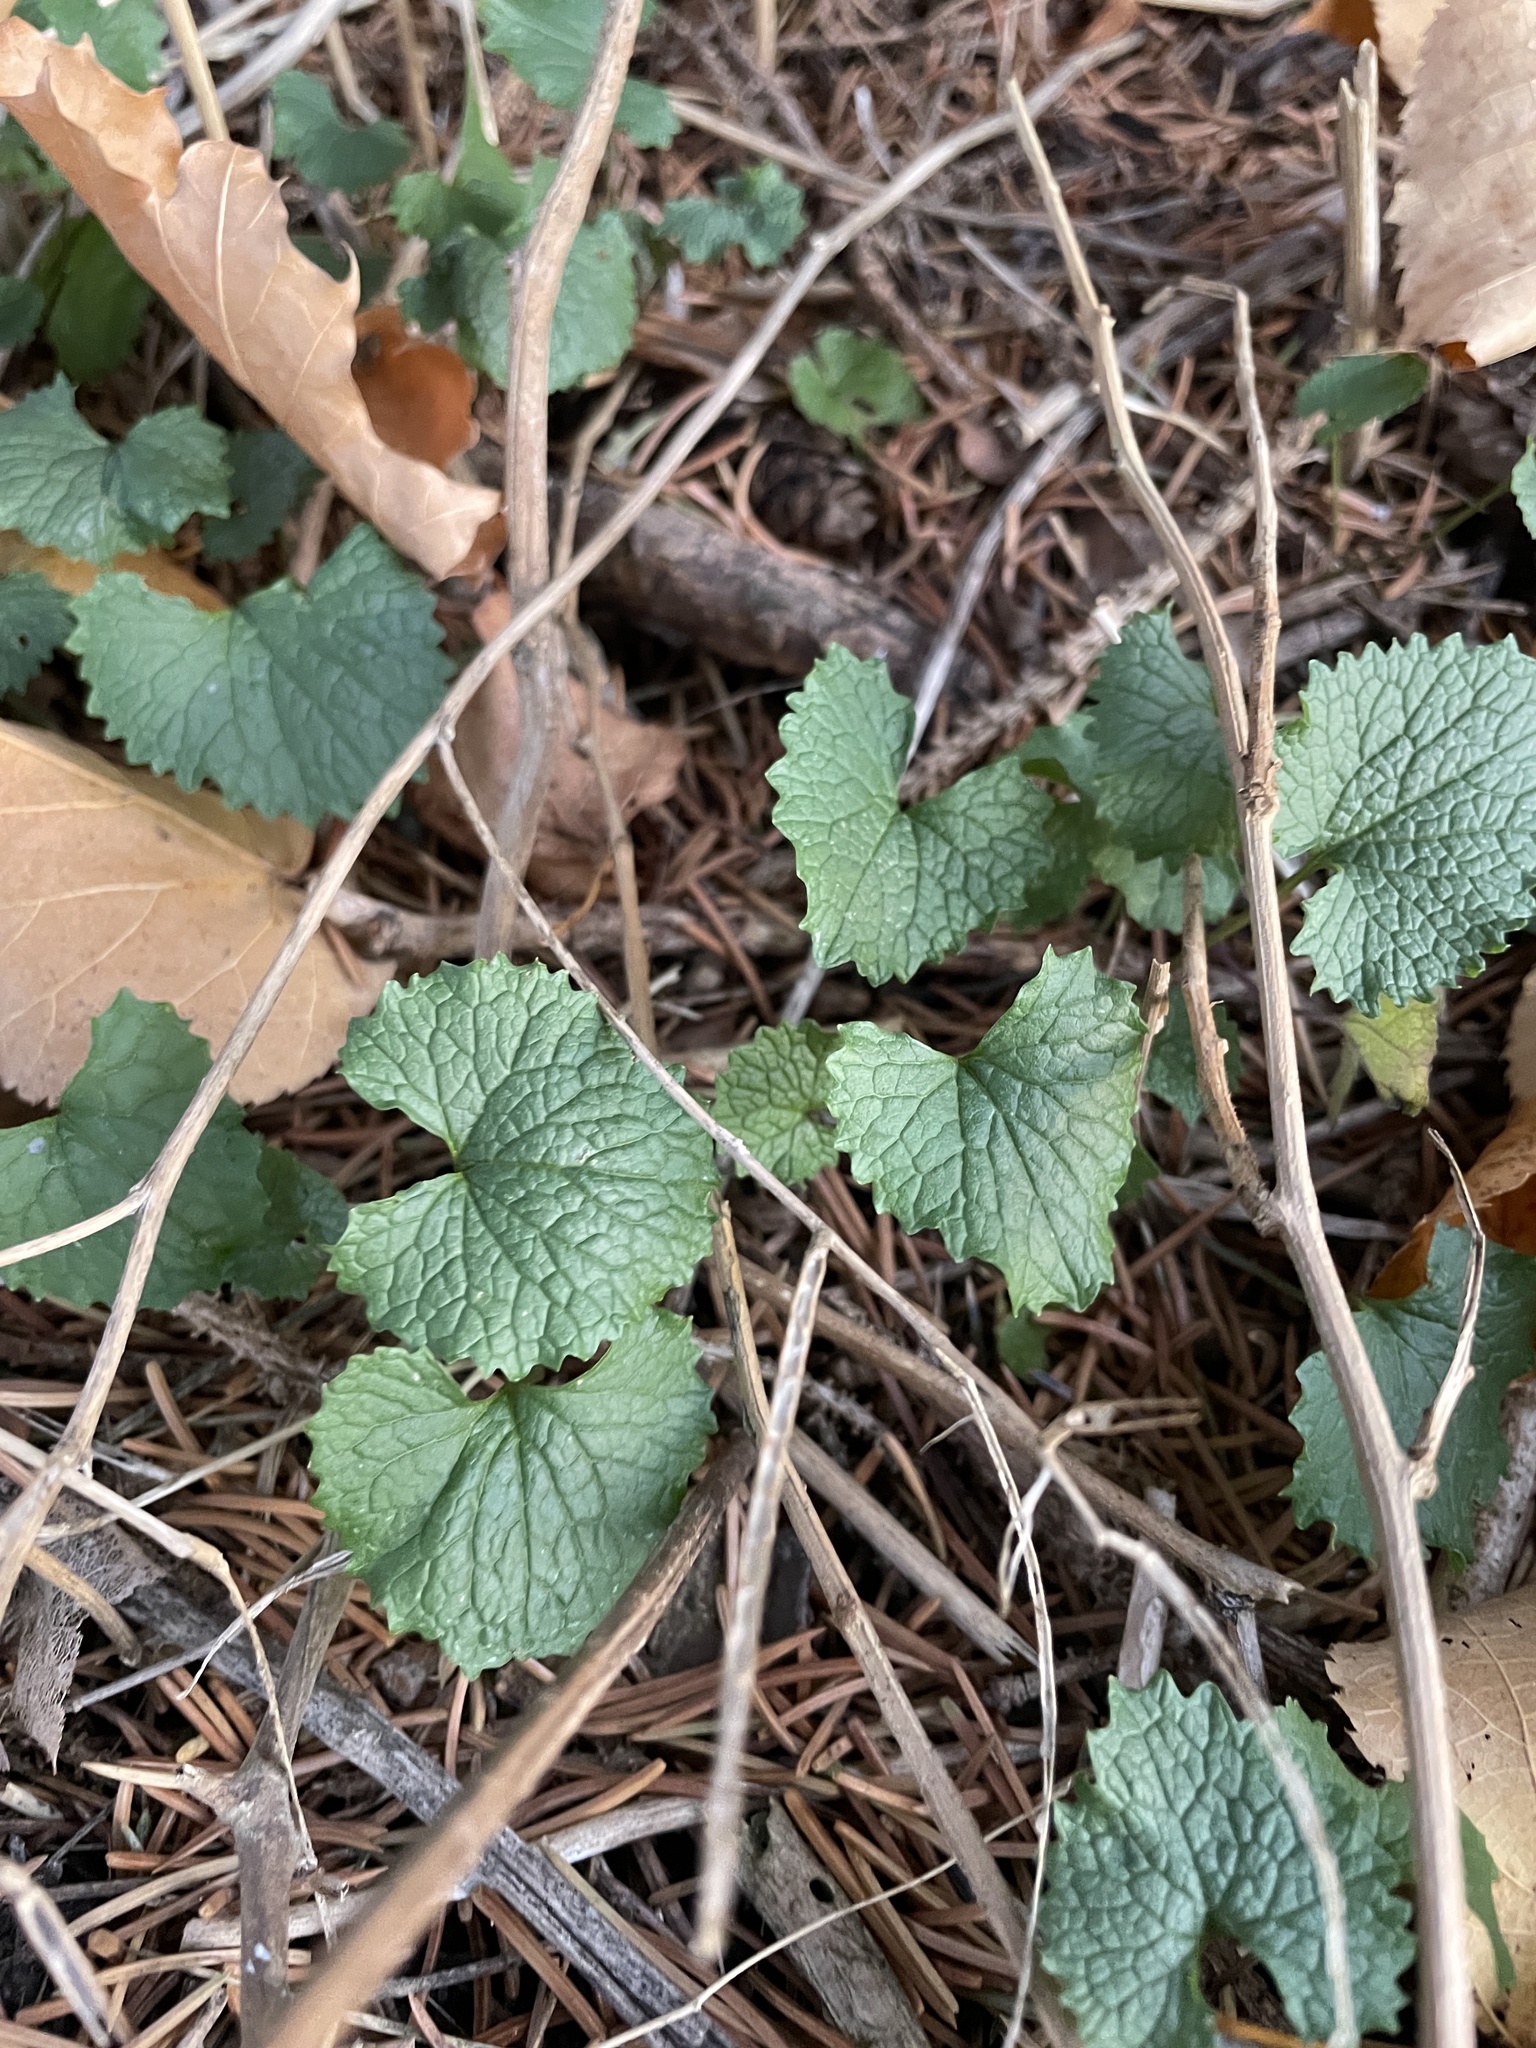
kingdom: Plantae
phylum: Tracheophyta
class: Magnoliopsida
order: Brassicales
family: Brassicaceae
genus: Alliaria
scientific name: Alliaria petiolata
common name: Garlic mustard
